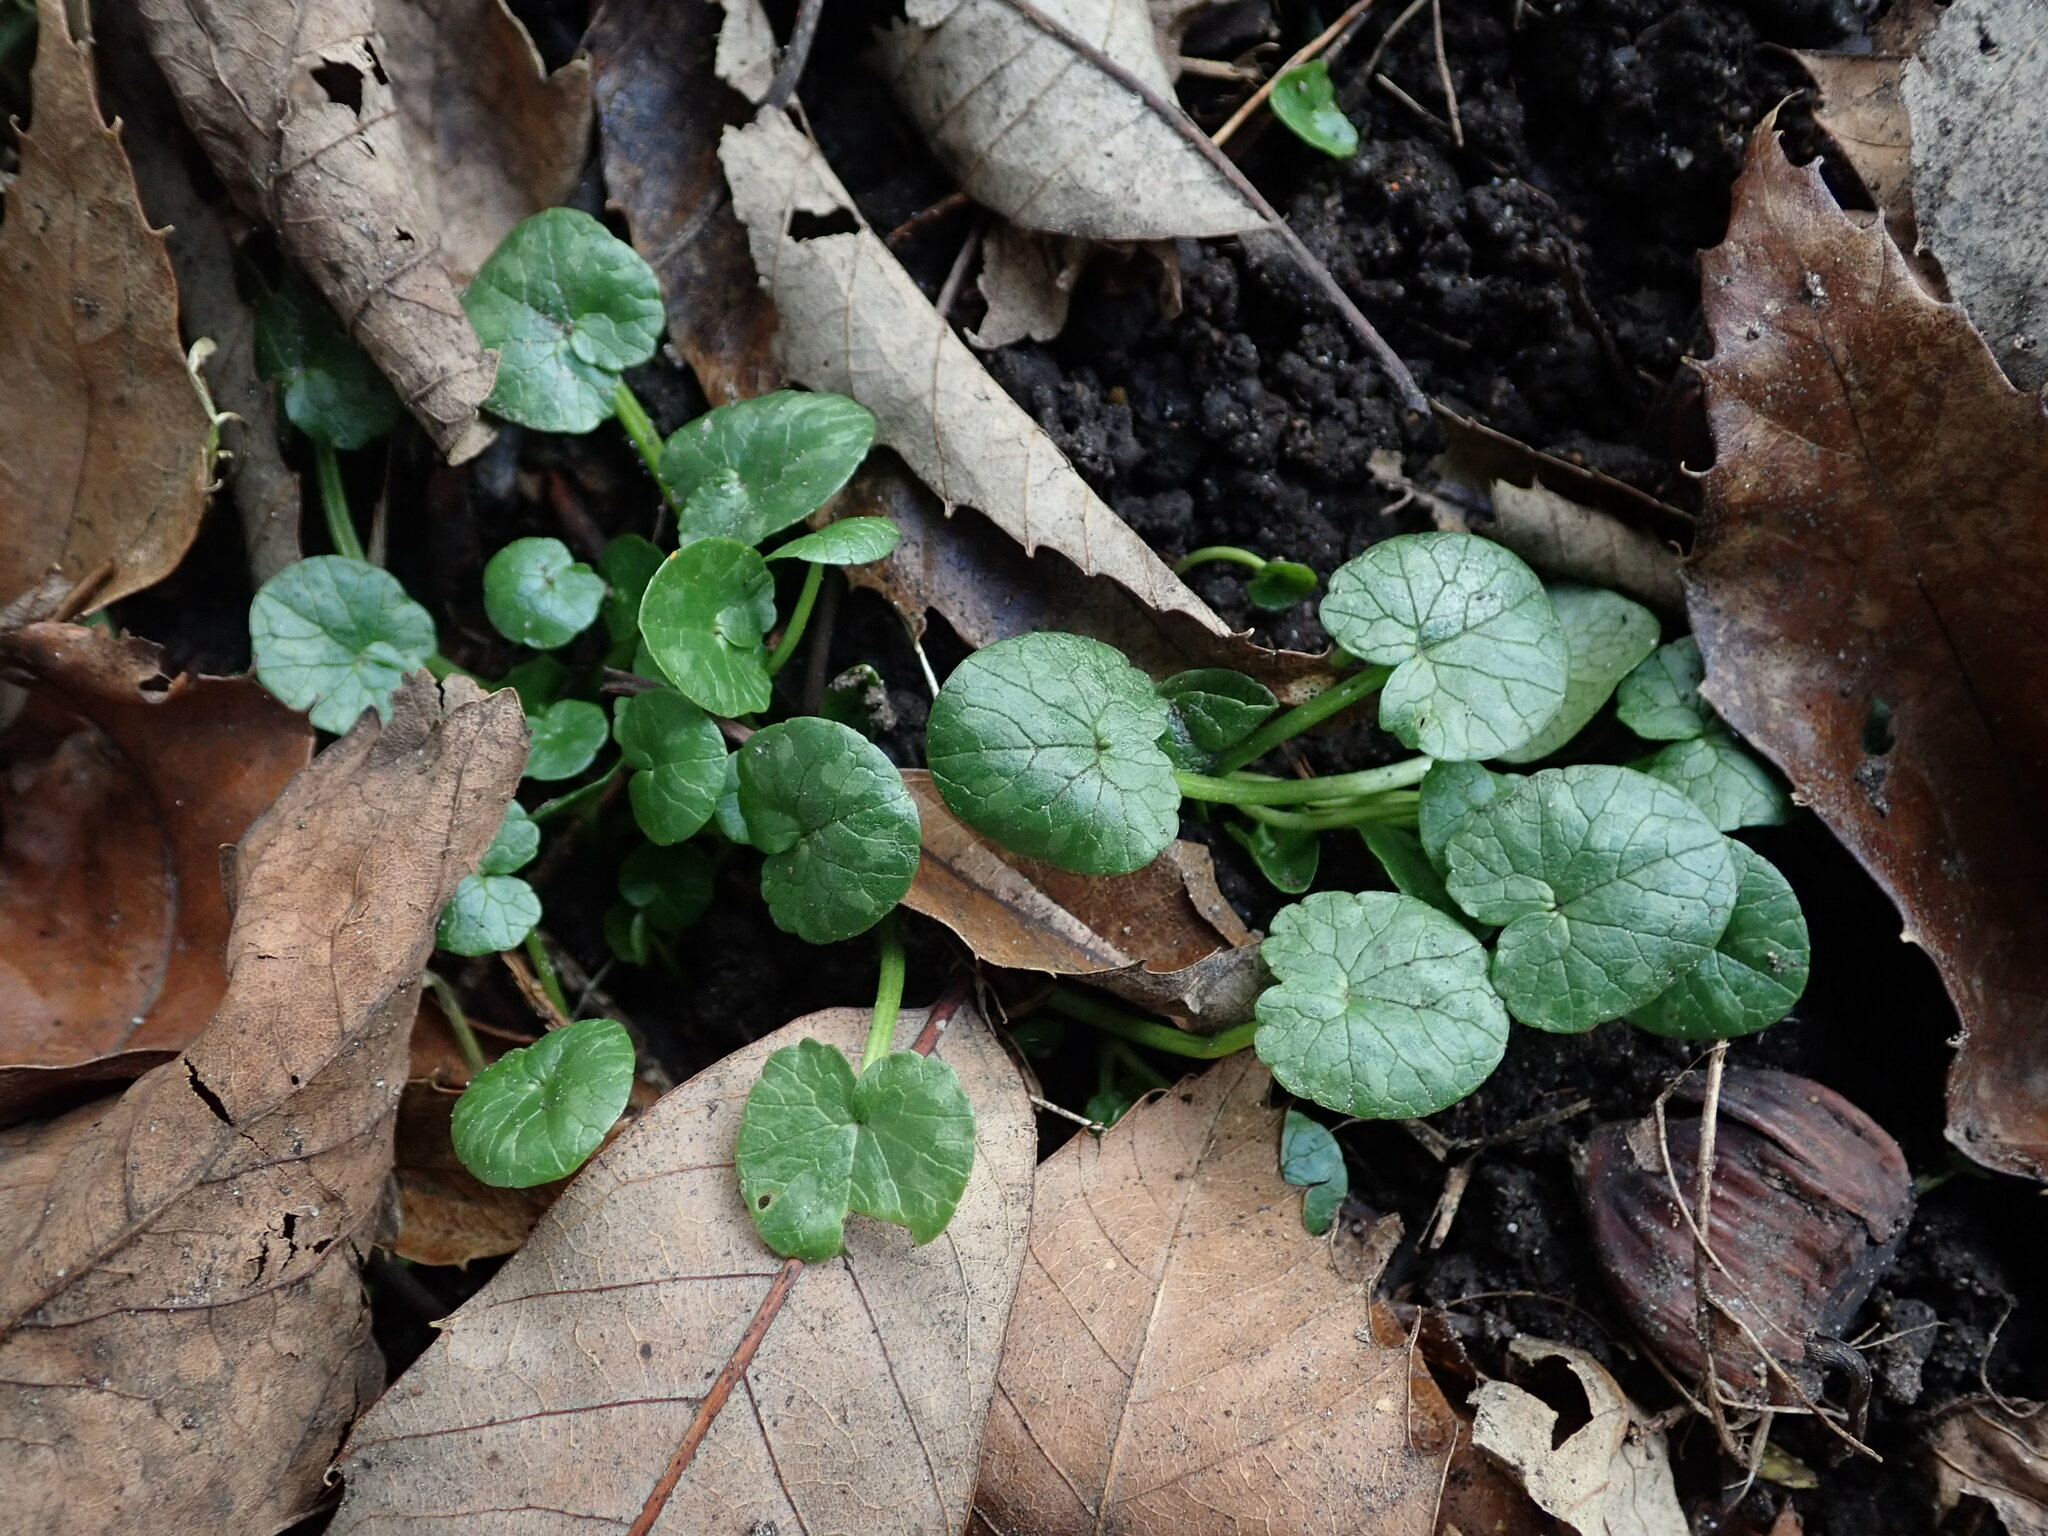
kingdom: Plantae
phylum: Tracheophyta
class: Magnoliopsida
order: Ranunculales
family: Ranunculaceae
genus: Ficaria
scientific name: Ficaria verna
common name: Lesser celandine
